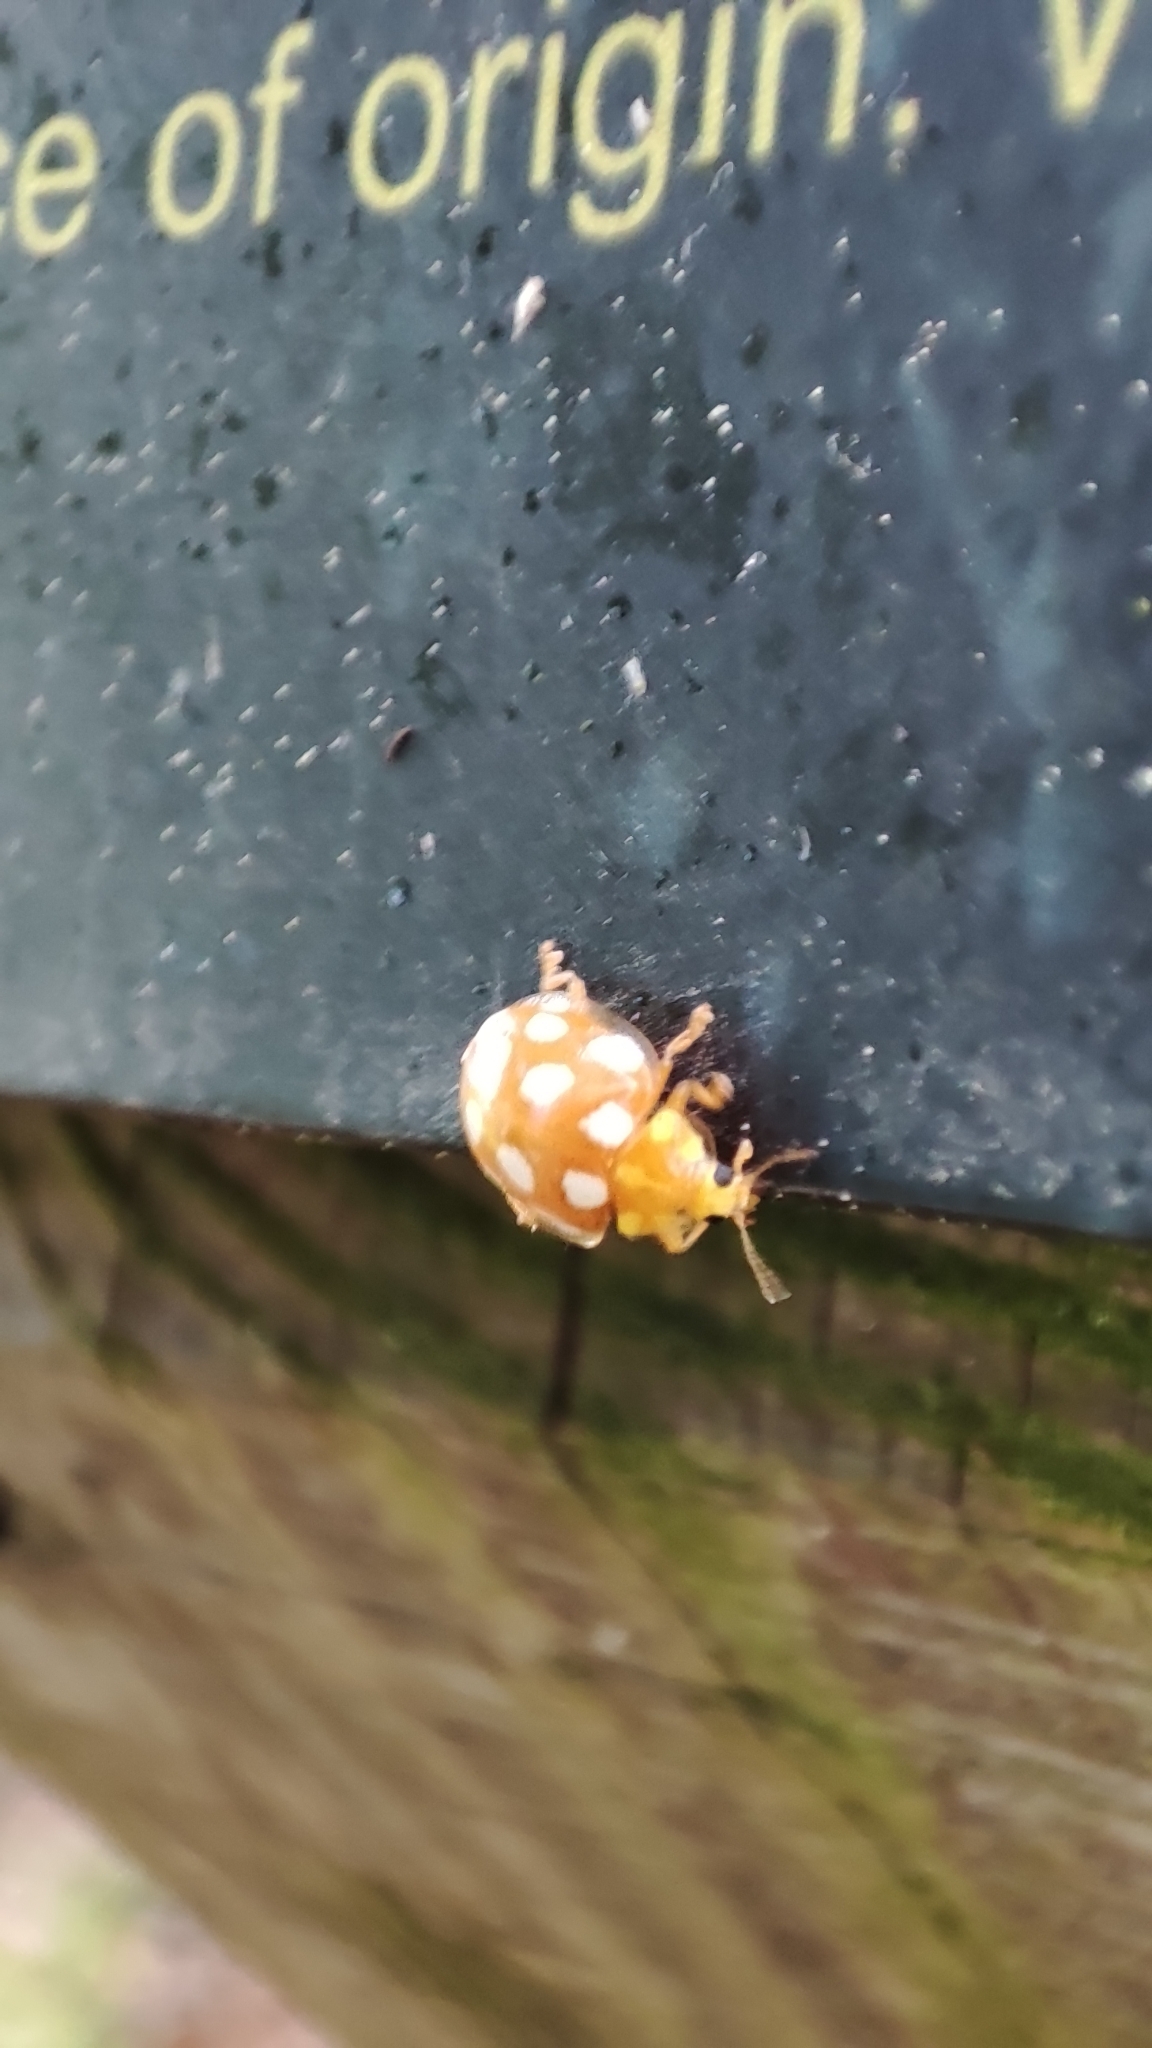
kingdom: Animalia
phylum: Arthropoda
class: Insecta
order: Coleoptera
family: Coccinellidae
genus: Halyzia
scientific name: Halyzia sedecimguttata
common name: Orange ladybird
